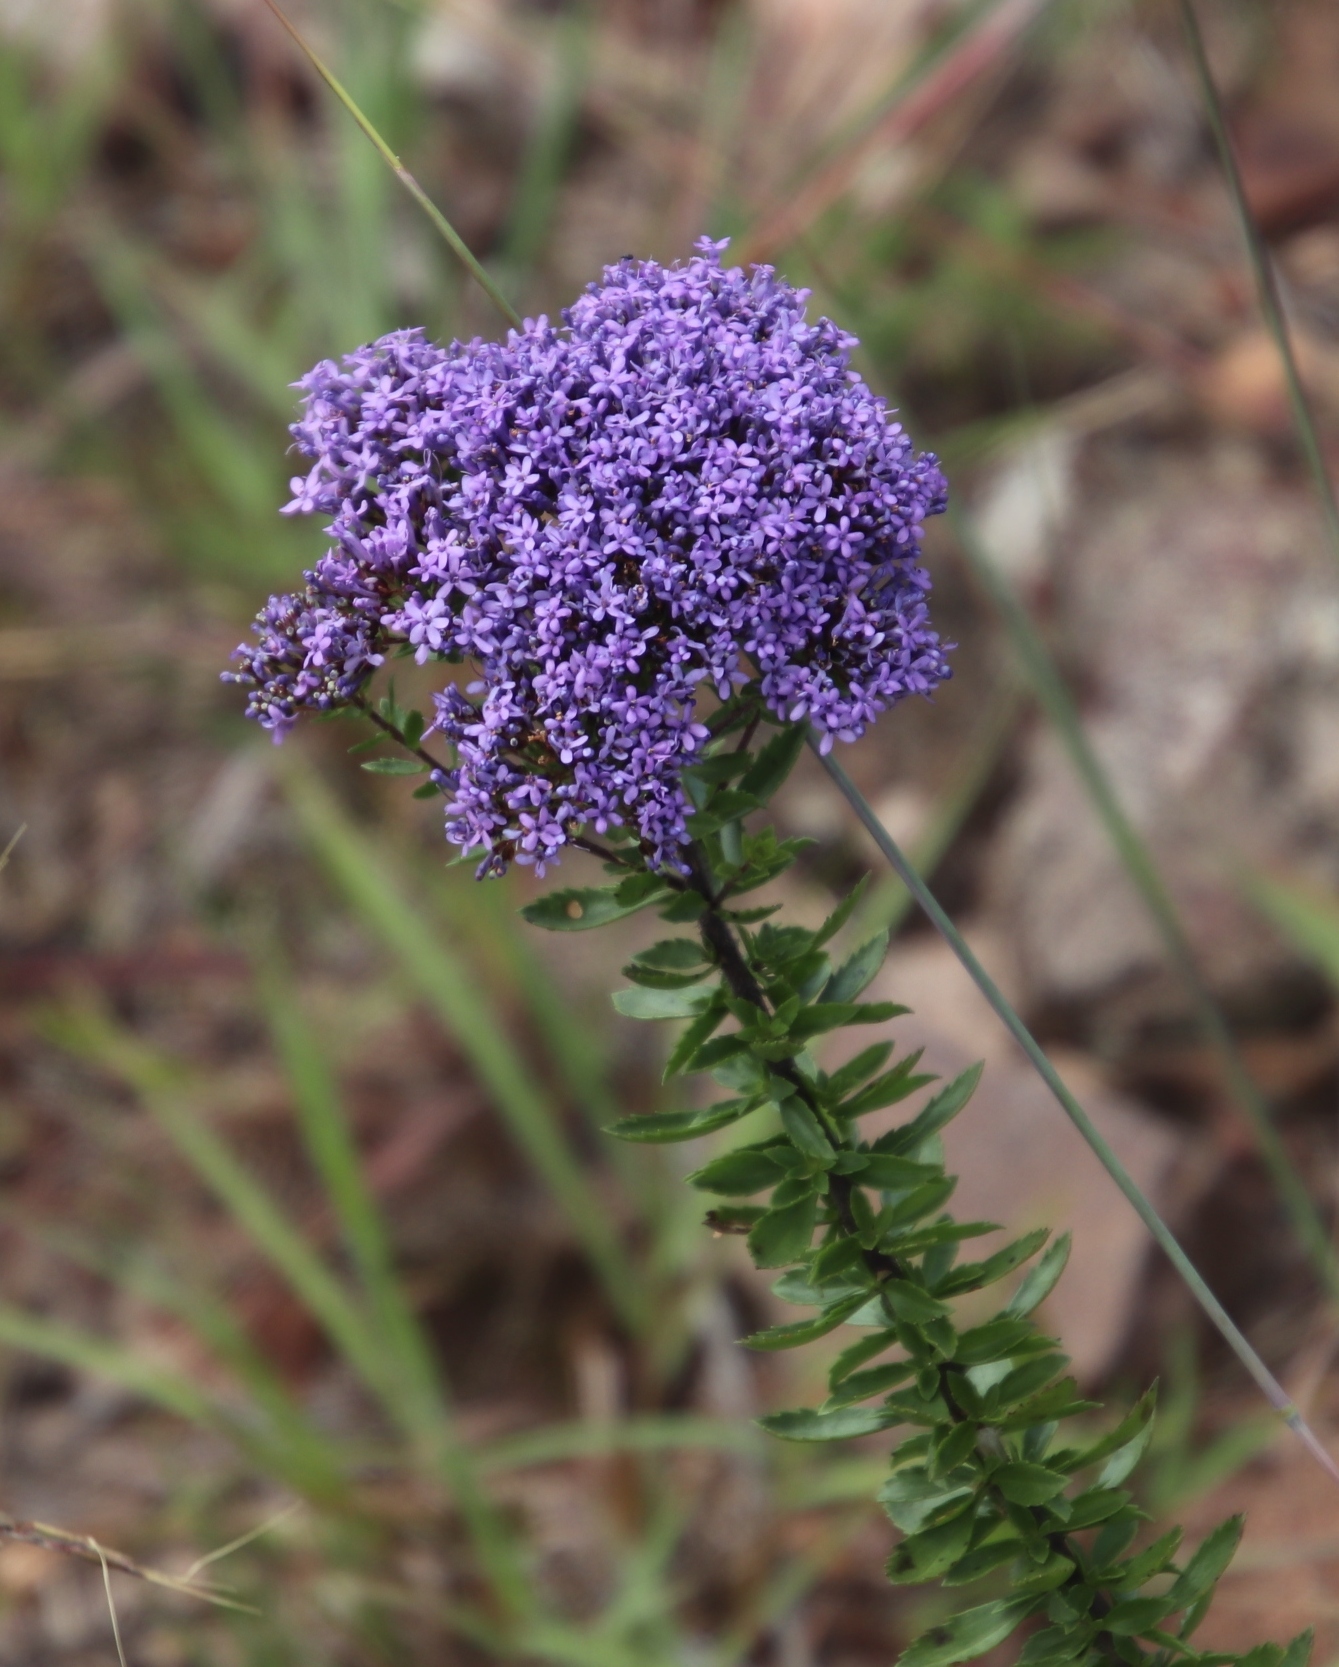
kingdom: Plantae
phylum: Tracheophyta
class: Magnoliopsida
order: Lamiales
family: Scrophulariaceae
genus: Tetraselago
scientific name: Tetraselago wilmsii
